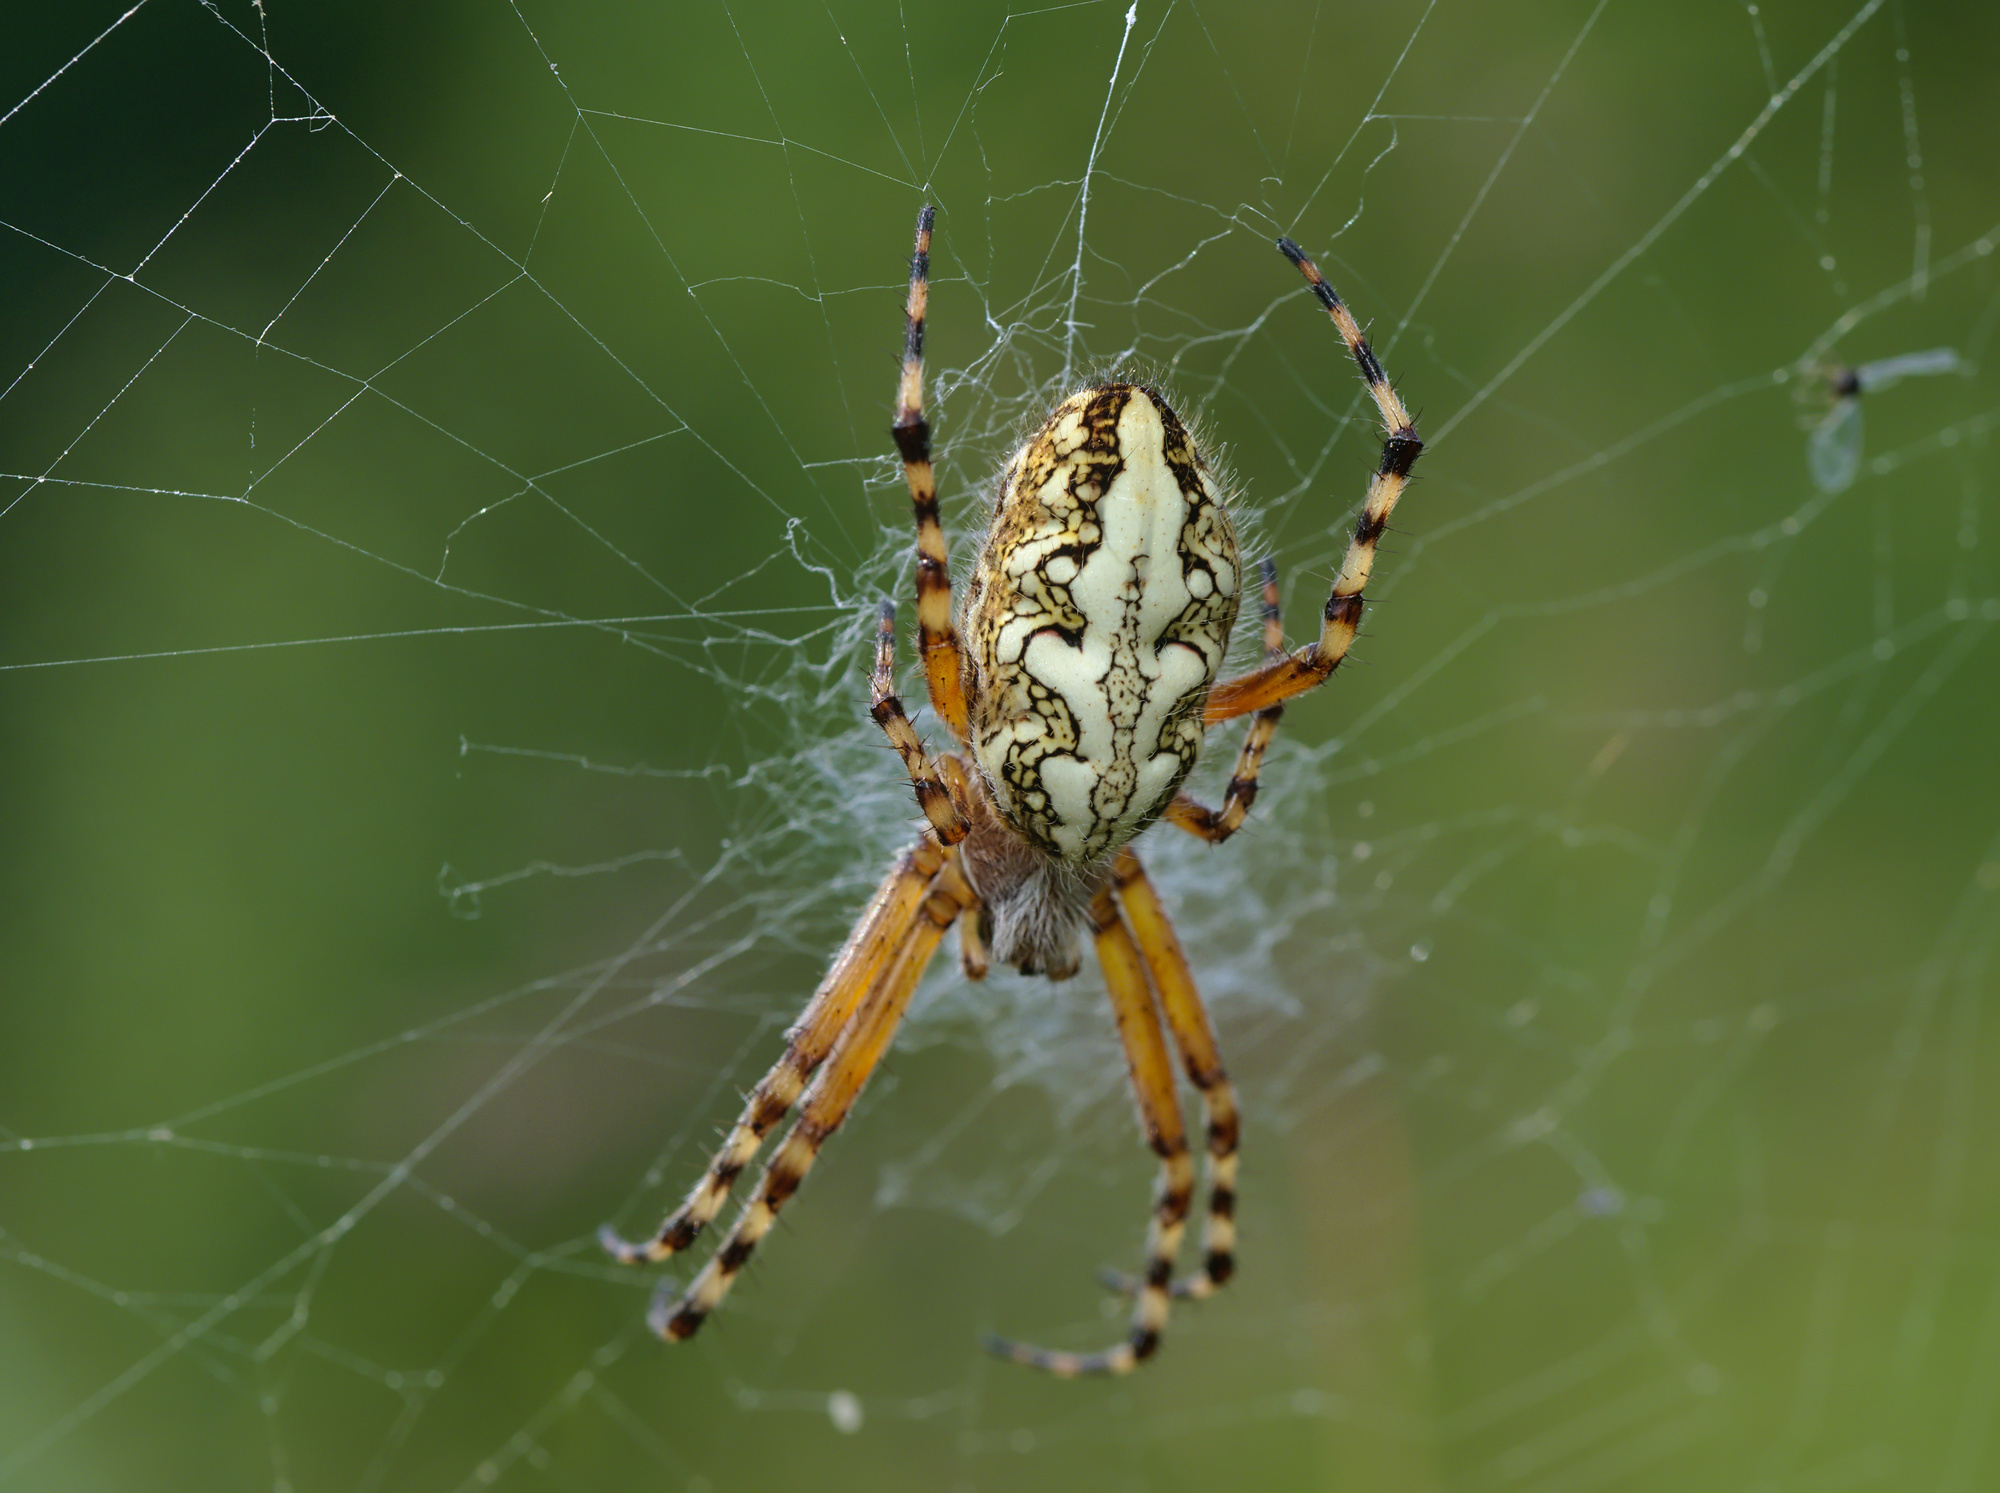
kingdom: Animalia
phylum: Arthropoda
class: Arachnida
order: Araneae
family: Araneidae
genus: Aculepeira
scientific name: Aculepeira ceropegia
